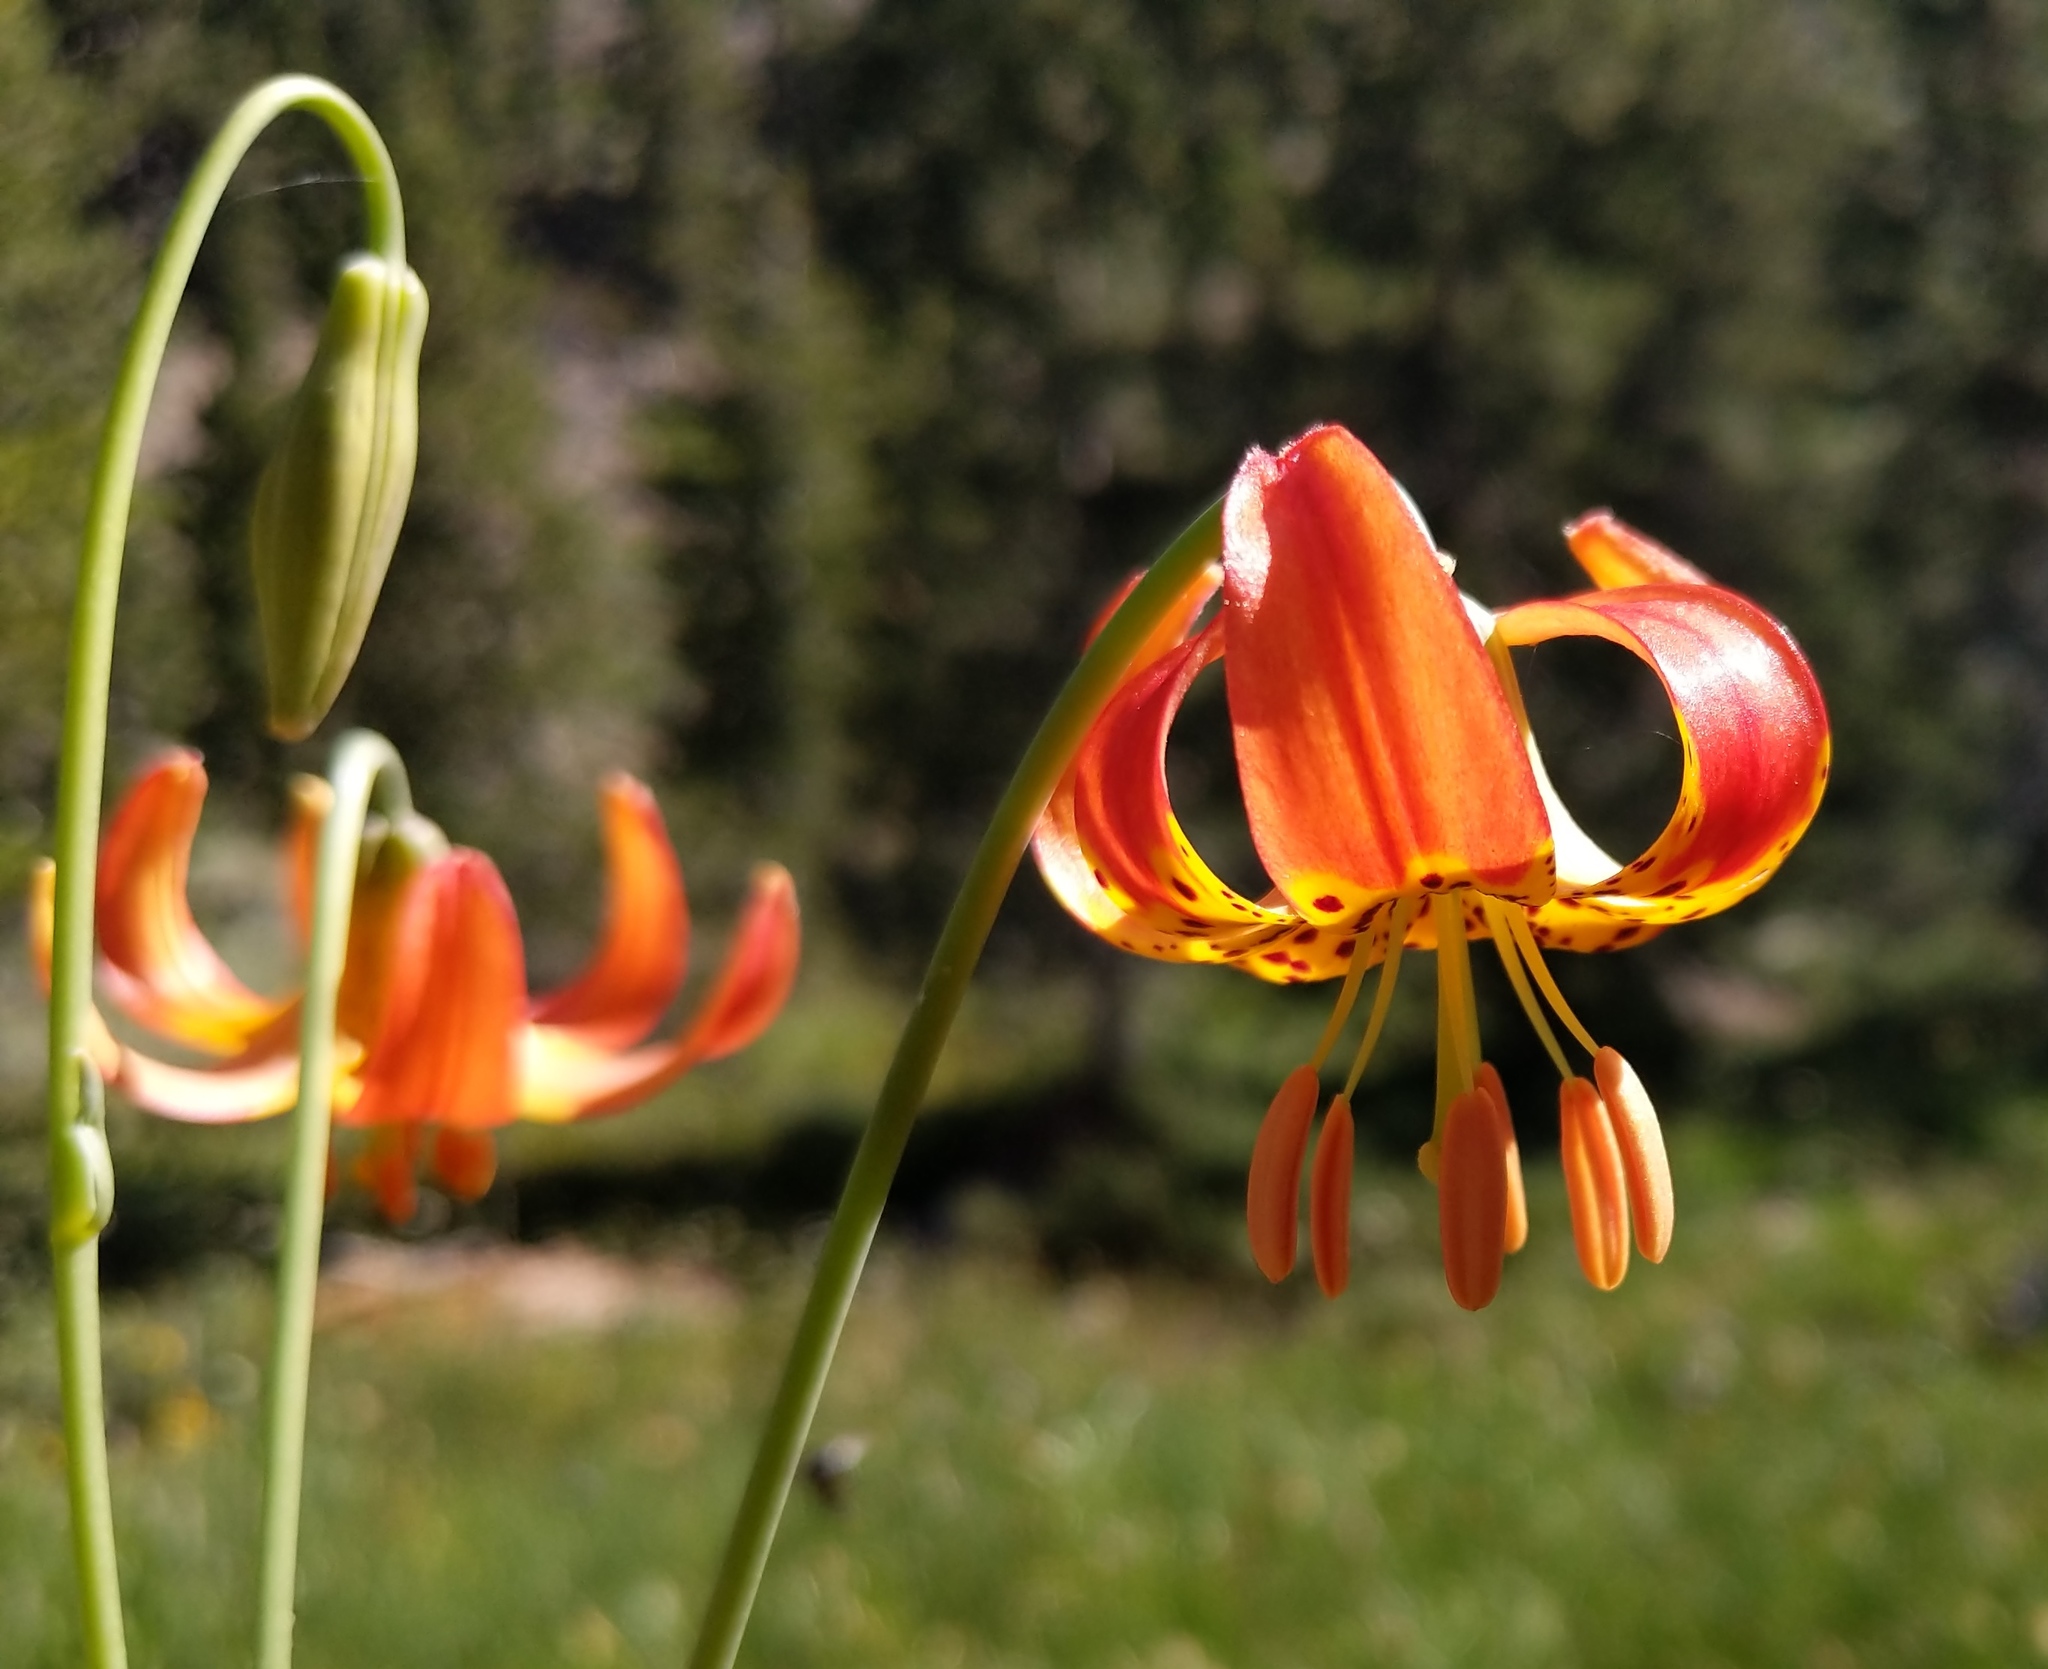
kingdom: Plantae
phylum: Tracheophyta
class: Liliopsida
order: Liliales
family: Liliaceae
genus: Lilium
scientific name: Lilium pardalinum
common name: Panther lily
